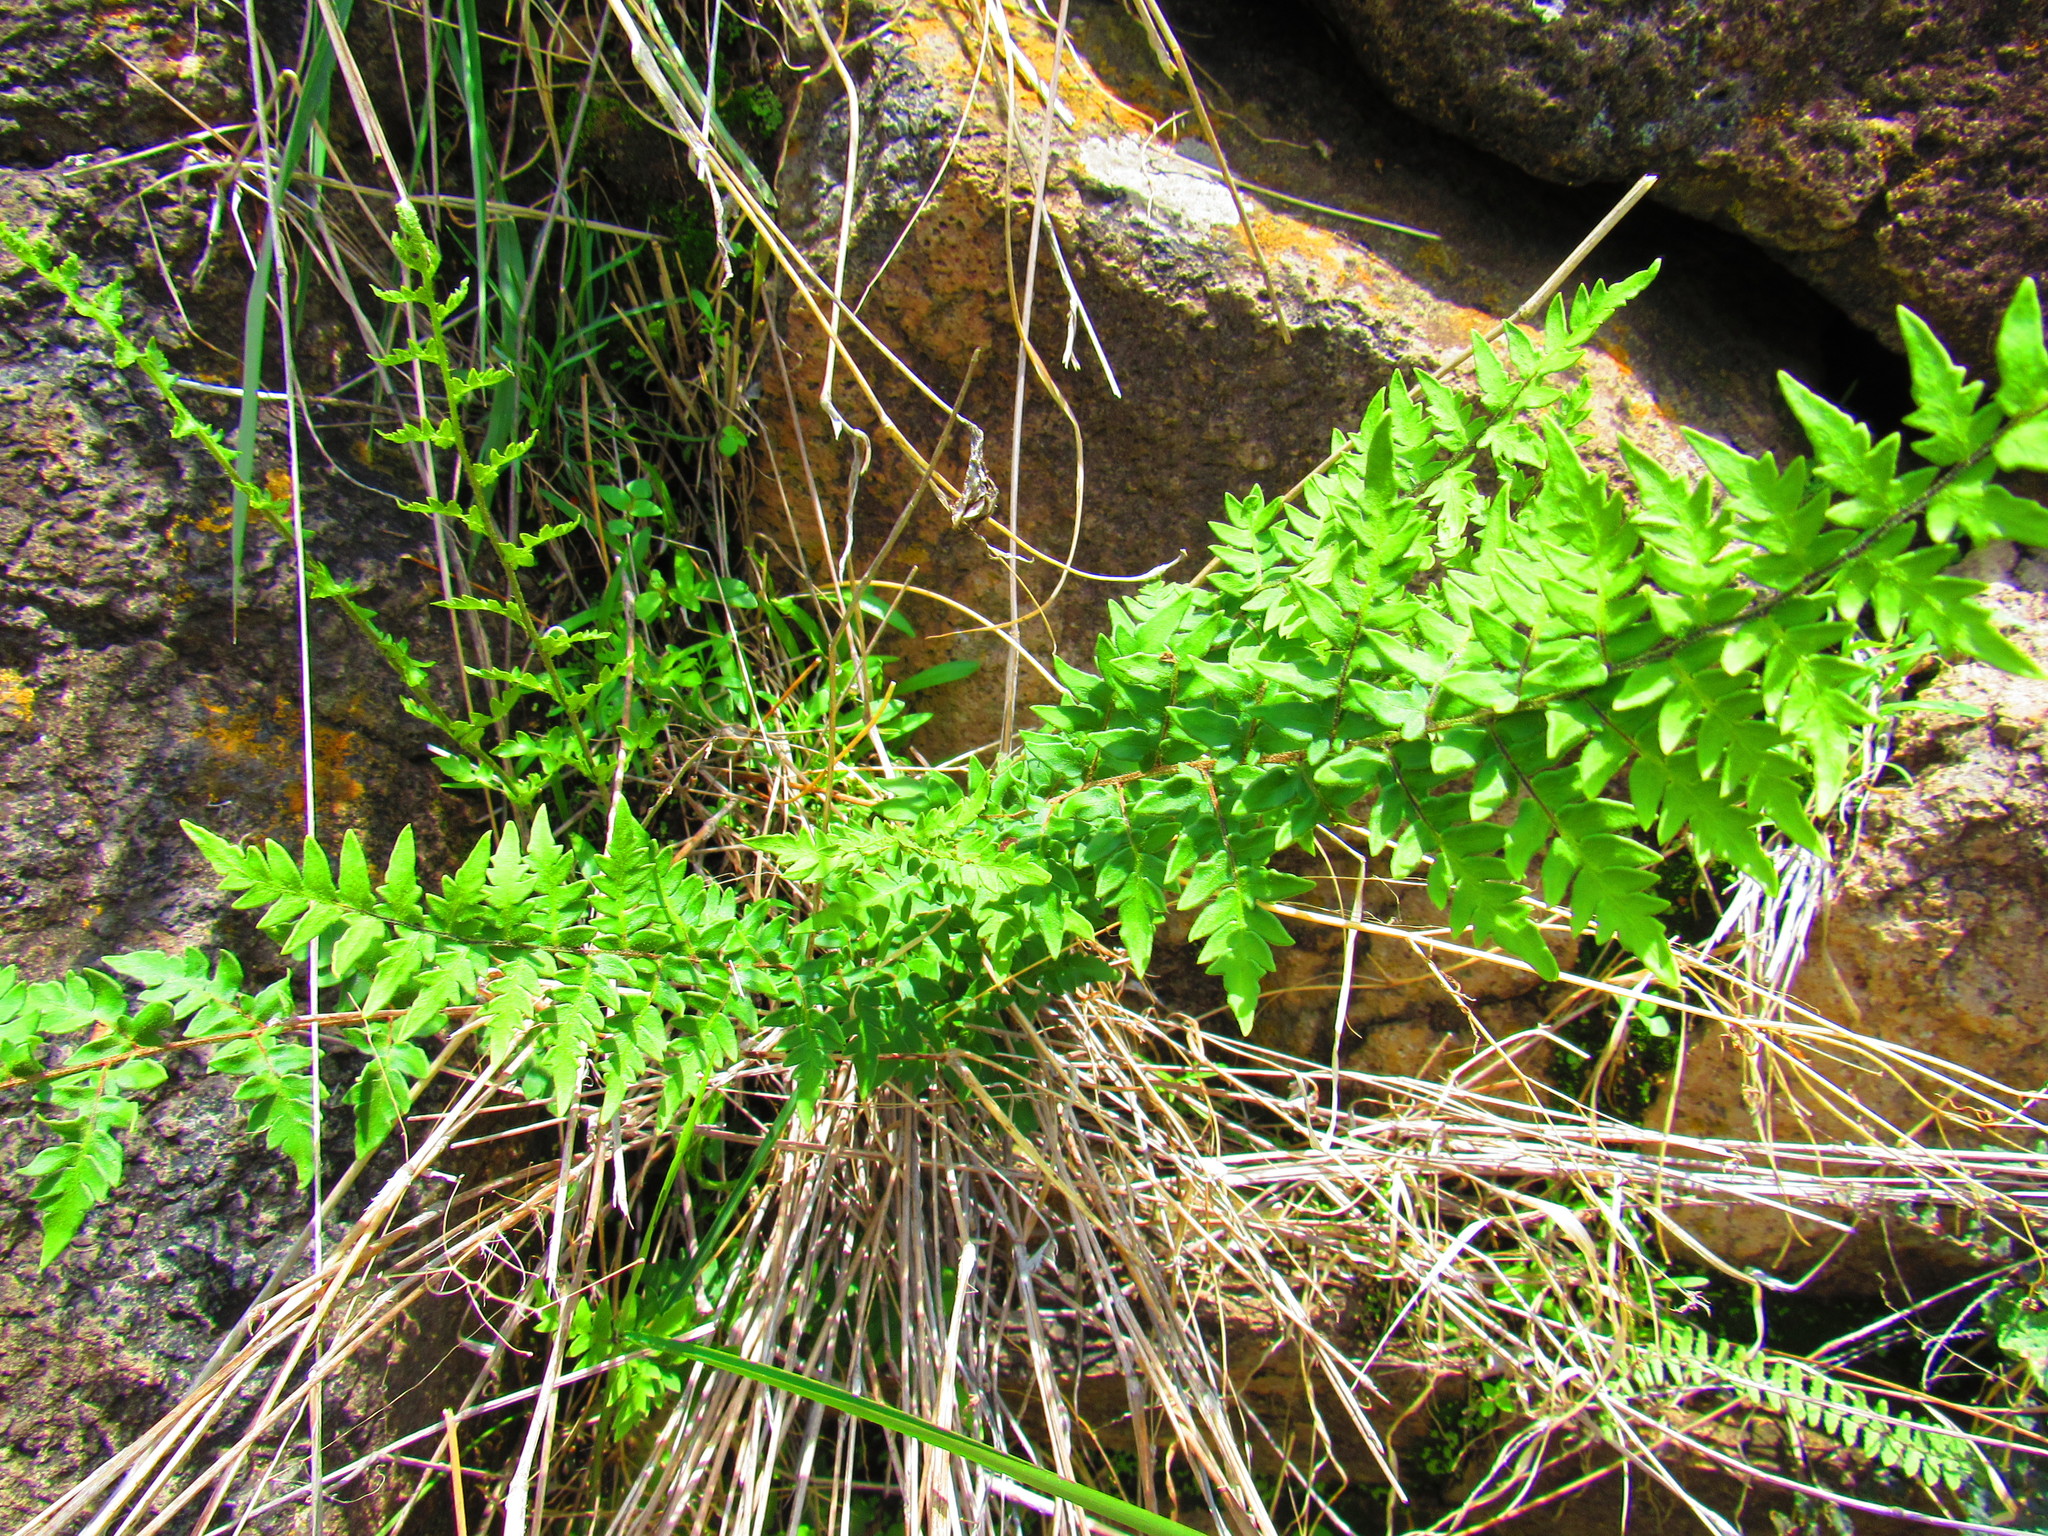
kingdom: Plantae
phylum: Tracheophyta
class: Polypodiopsida
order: Polypodiales
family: Pteridaceae
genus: Myriopteris
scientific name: Myriopteris cucullans
